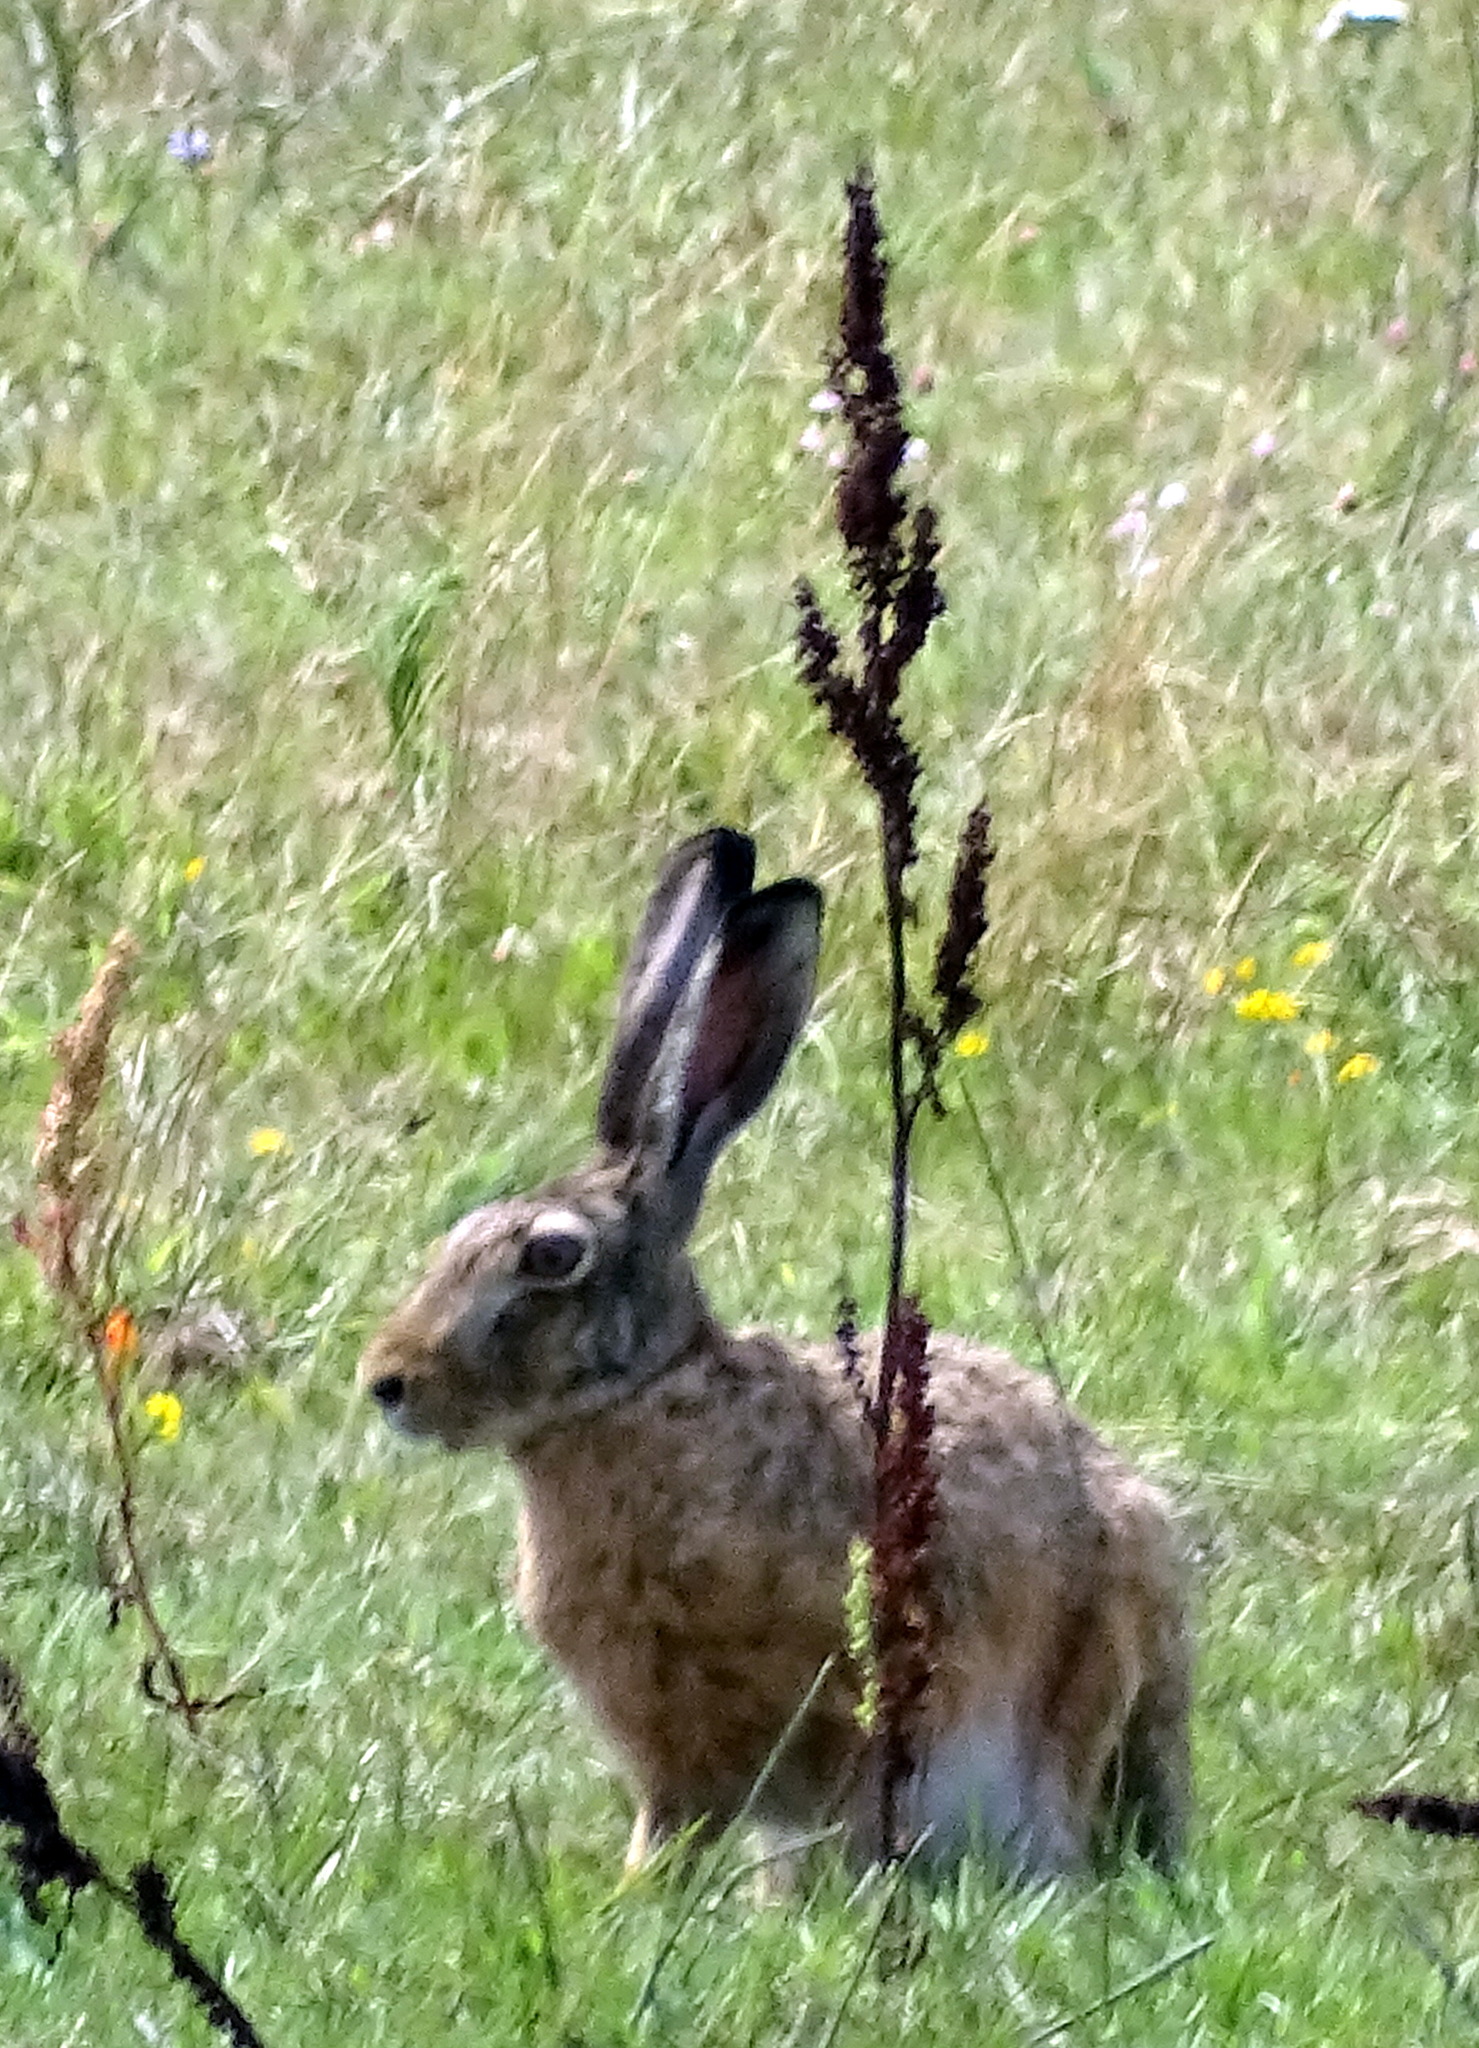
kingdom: Animalia
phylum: Chordata
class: Mammalia
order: Lagomorpha
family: Leporidae
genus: Lepus
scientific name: Lepus europaeus
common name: European hare
